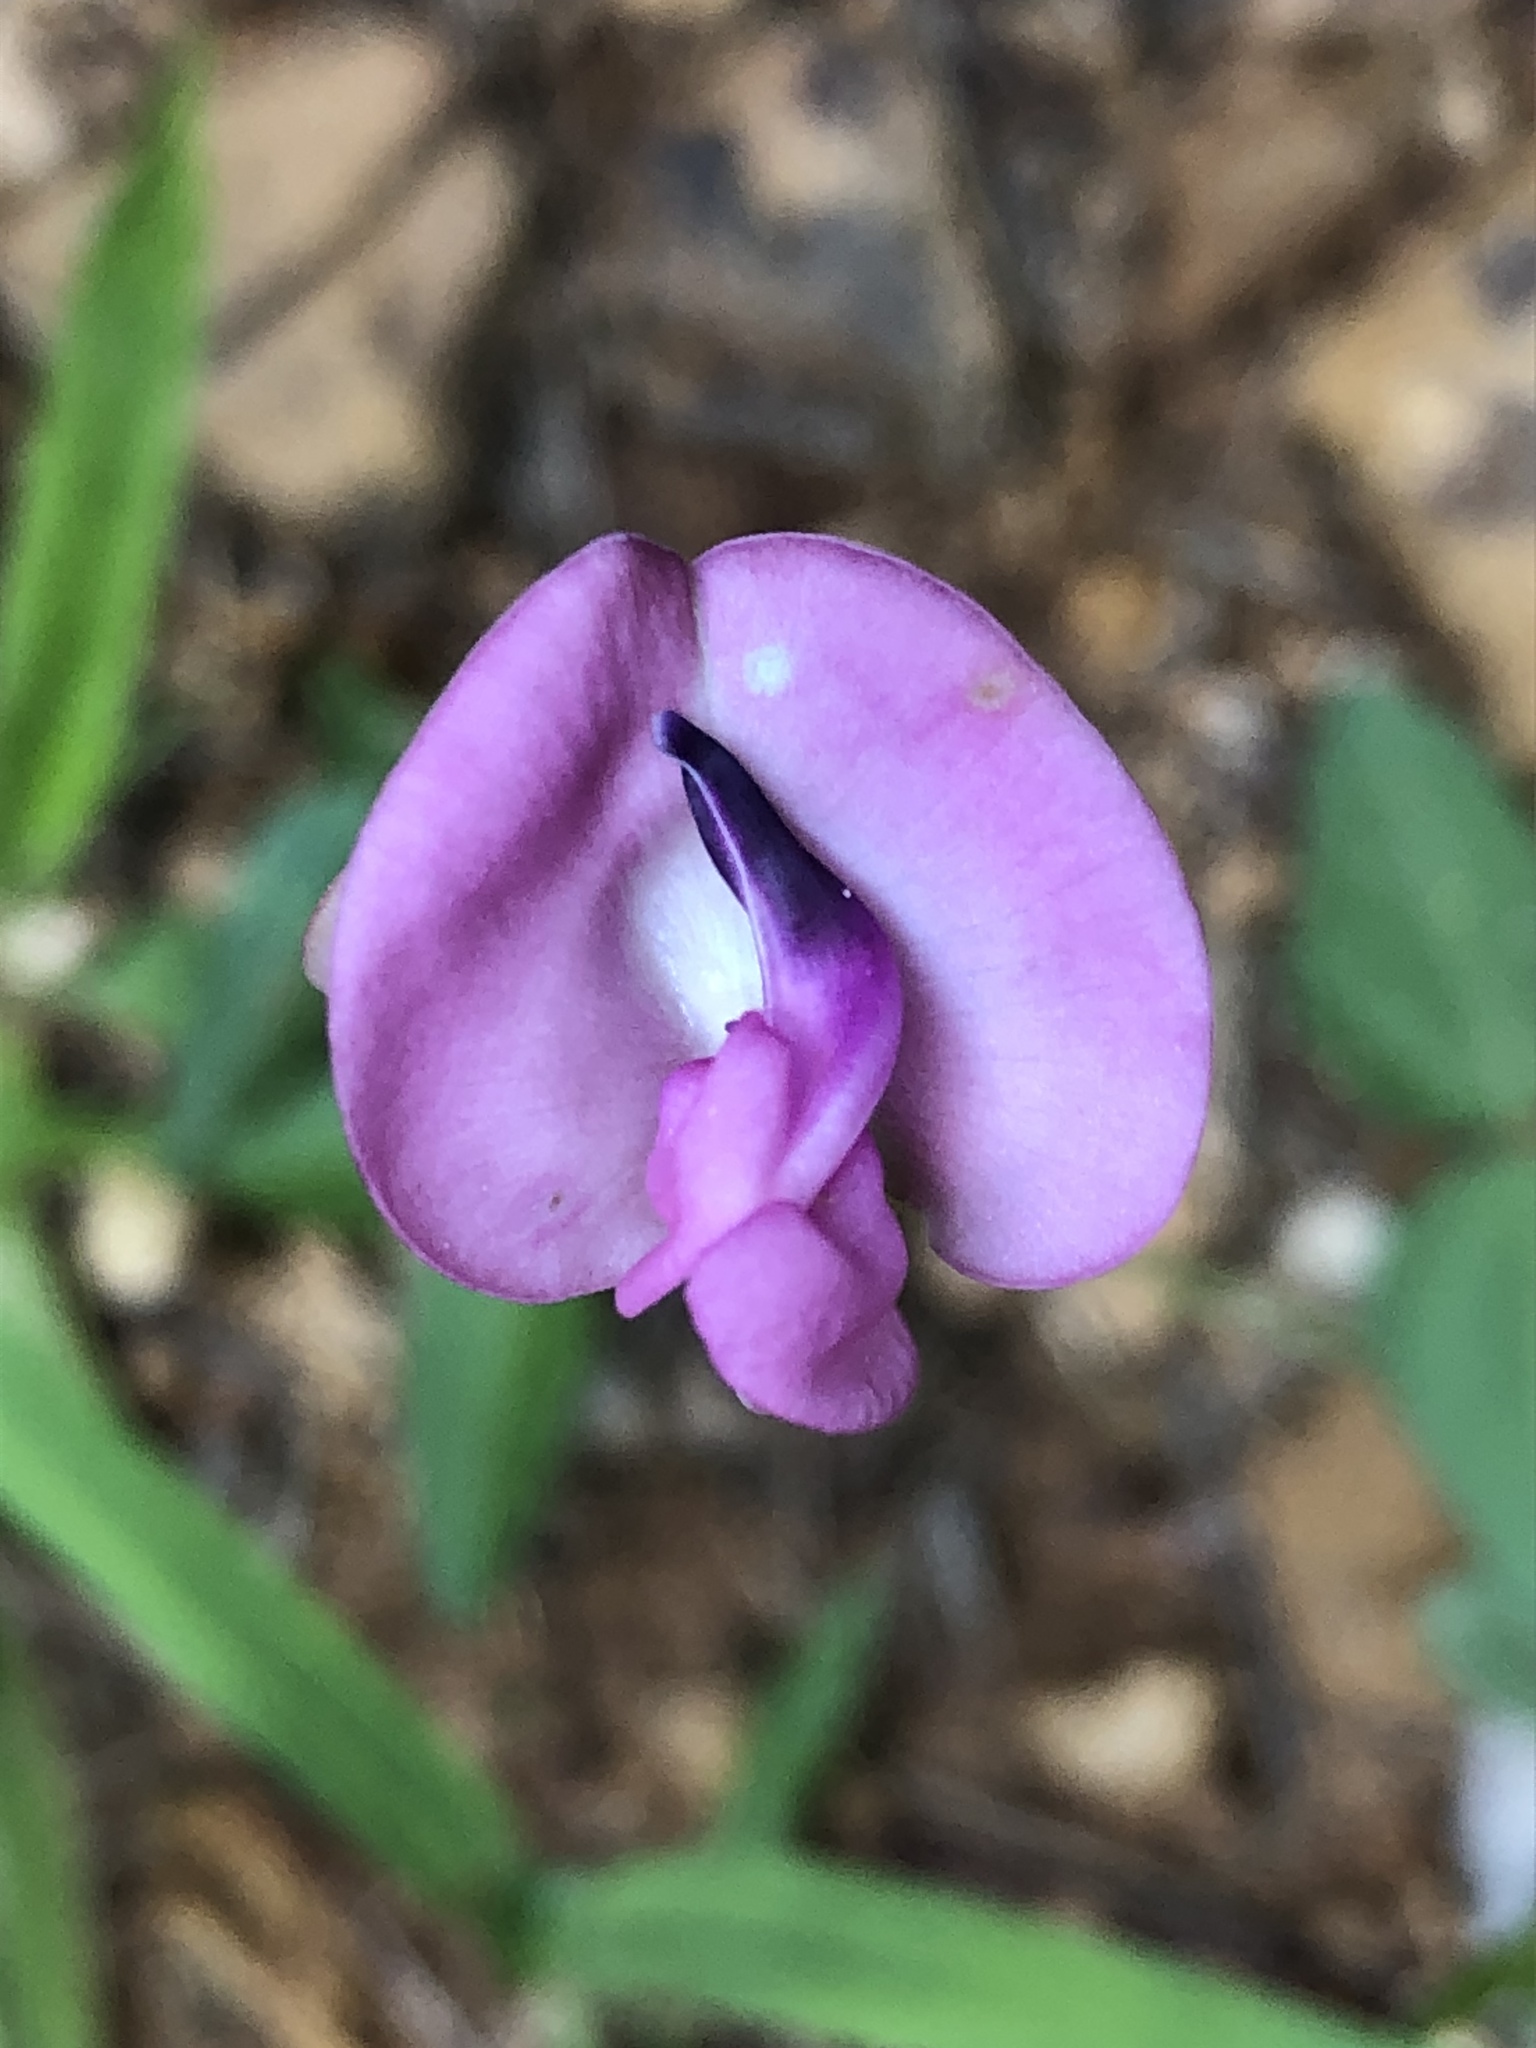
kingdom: Plantae
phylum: Tracheophyta
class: Magnoliopsida
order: Fabales
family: Fabaceae
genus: Strophostyles
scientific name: Strophostyles umbellata
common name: Perennial wild bean
